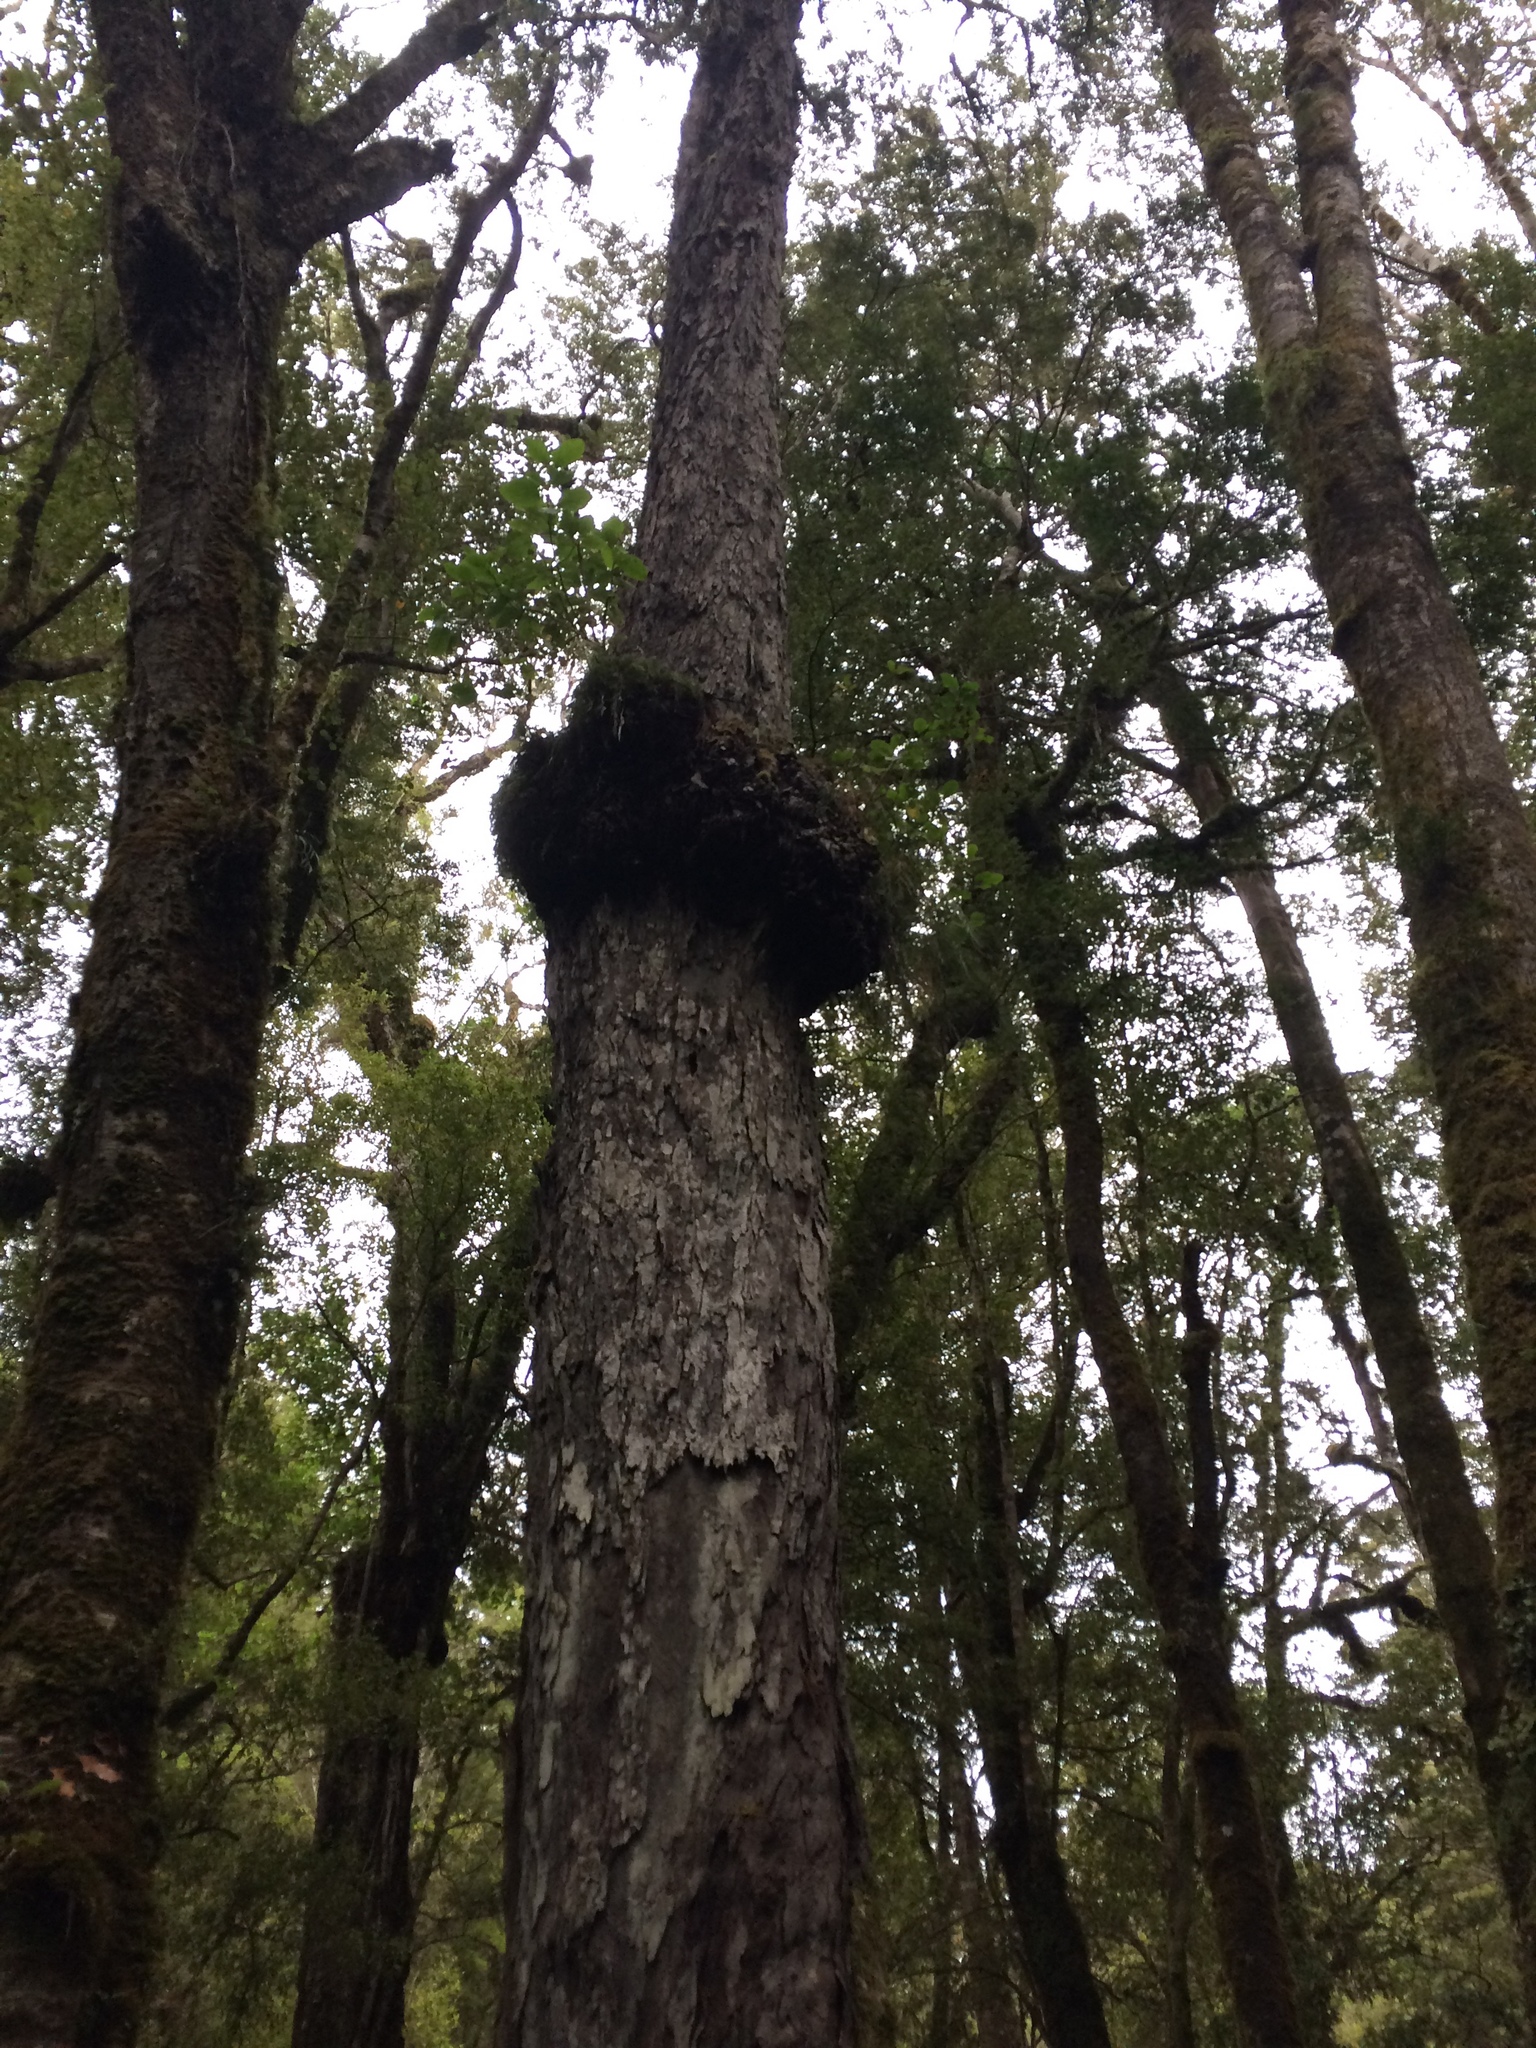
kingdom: Plantae
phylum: Tracheophyta
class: Pinopsida
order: Pinales
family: Podocarpaceae
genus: Dacrydium
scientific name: Dacrydium cupressinum
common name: Red pine
